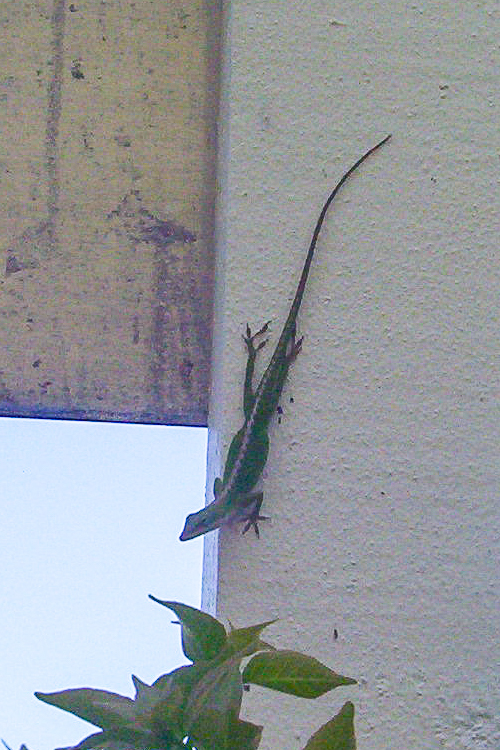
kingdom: Animalia
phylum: Chordata
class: Squamata
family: Dactyloidae
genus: Anolis
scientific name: Anolis carolinensis
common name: Green anole
